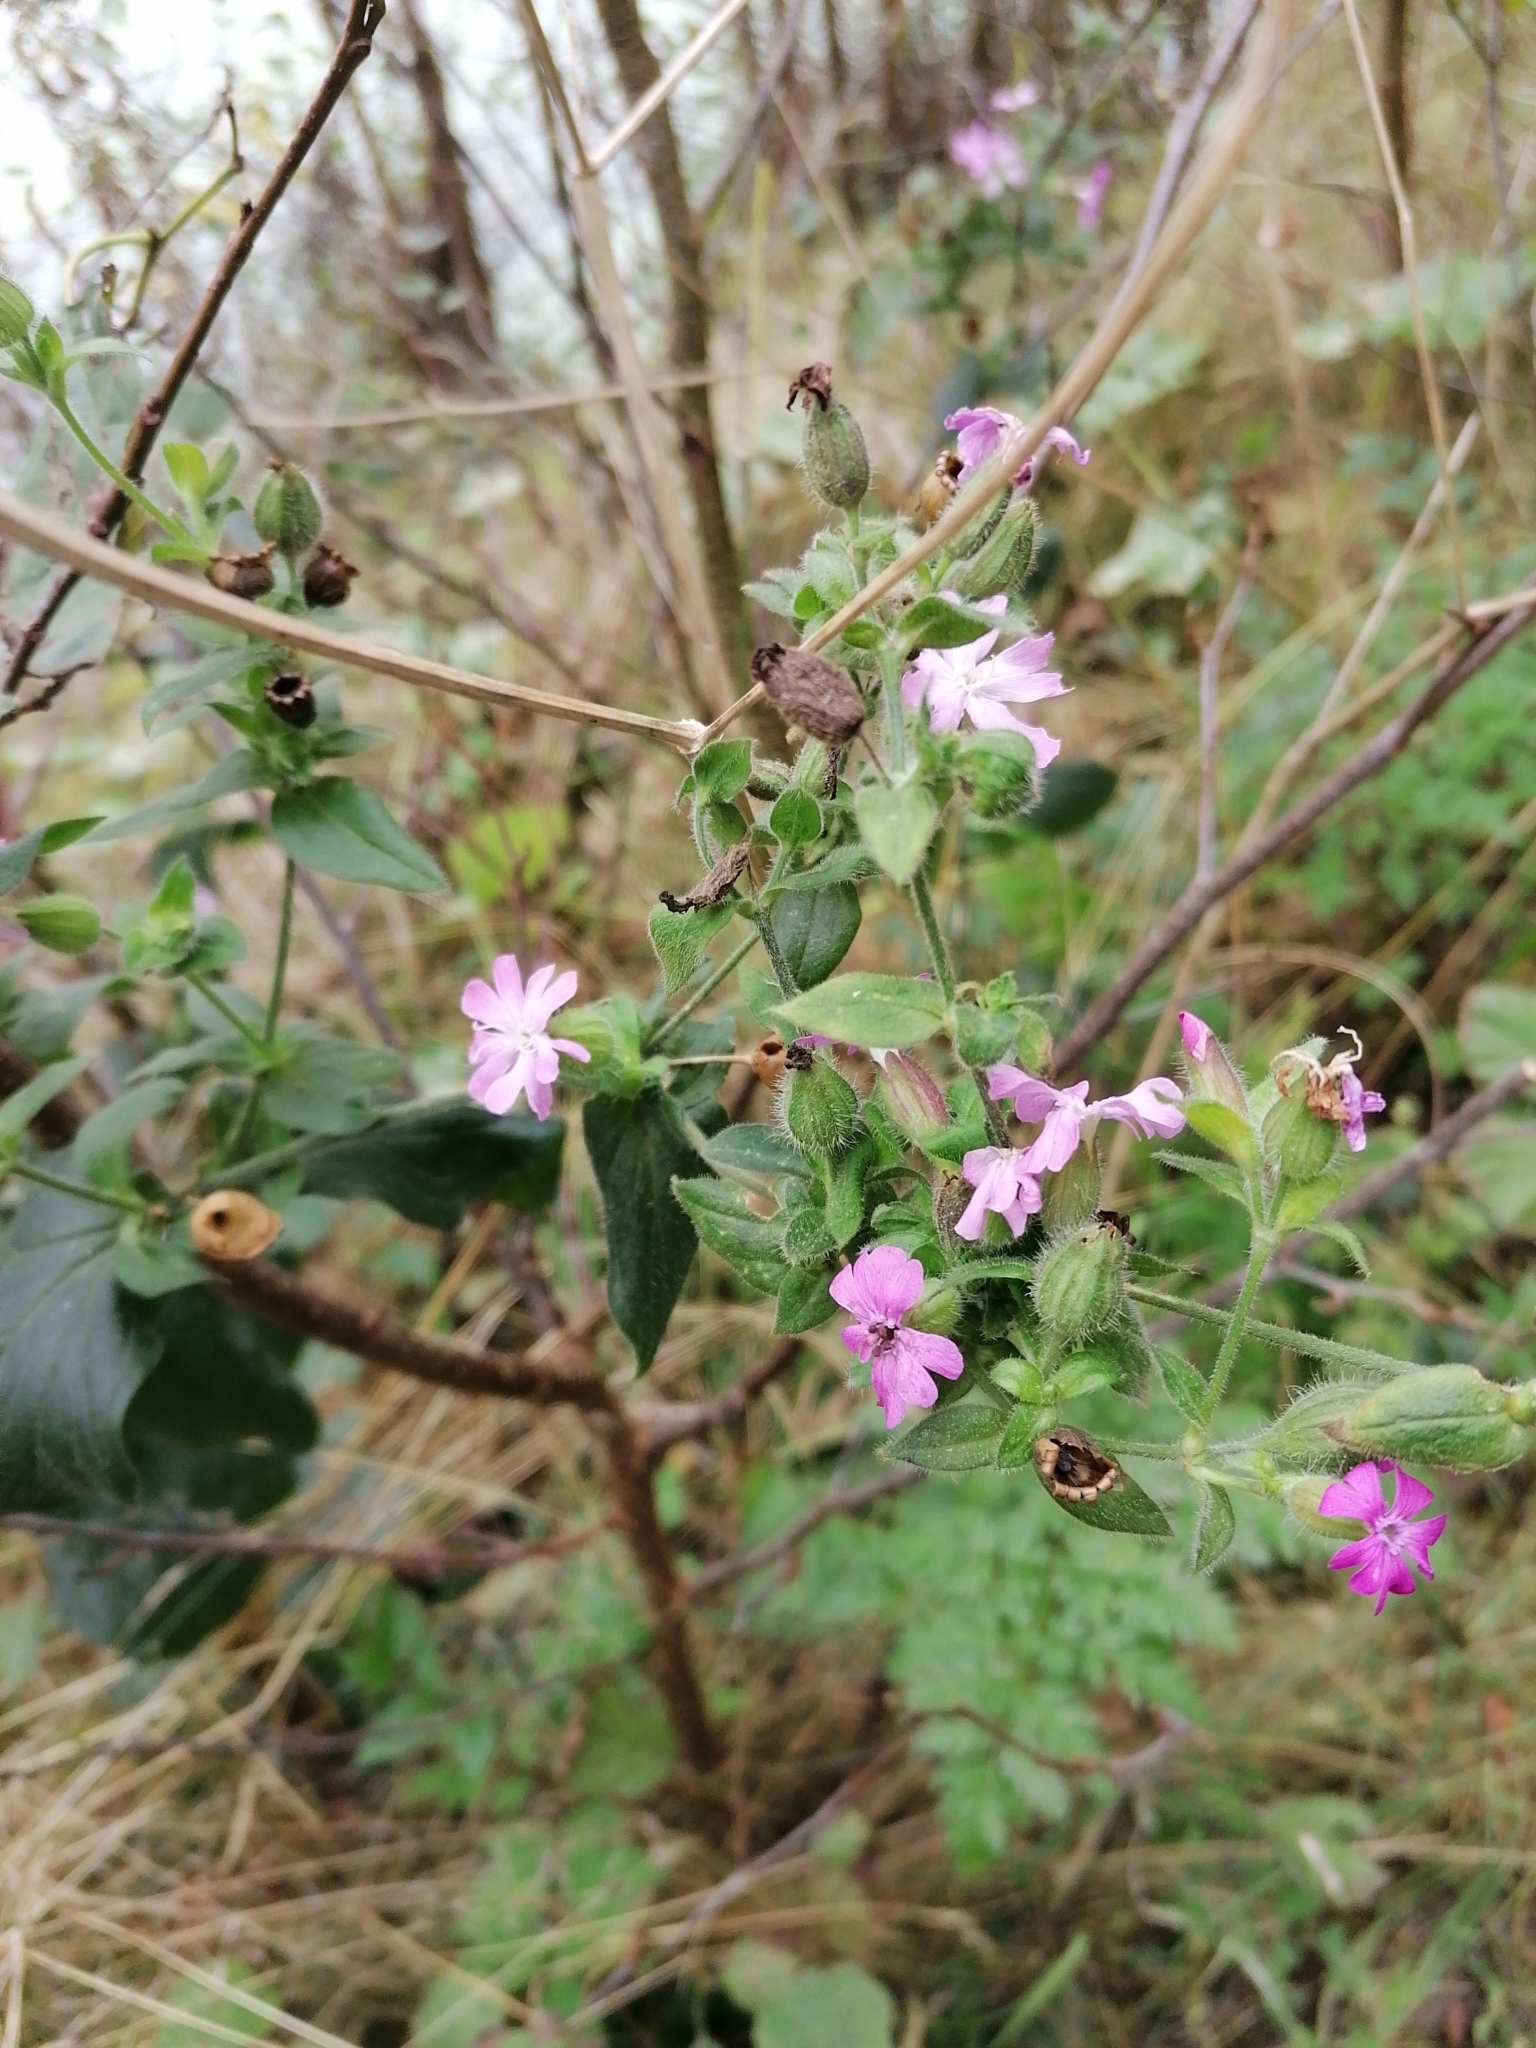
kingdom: Plantae
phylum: Tracheophyta
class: Magnoliopsida
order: Caryophyllales
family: Caryophyllaceae
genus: Silene
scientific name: Silene dioica
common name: Red campion
